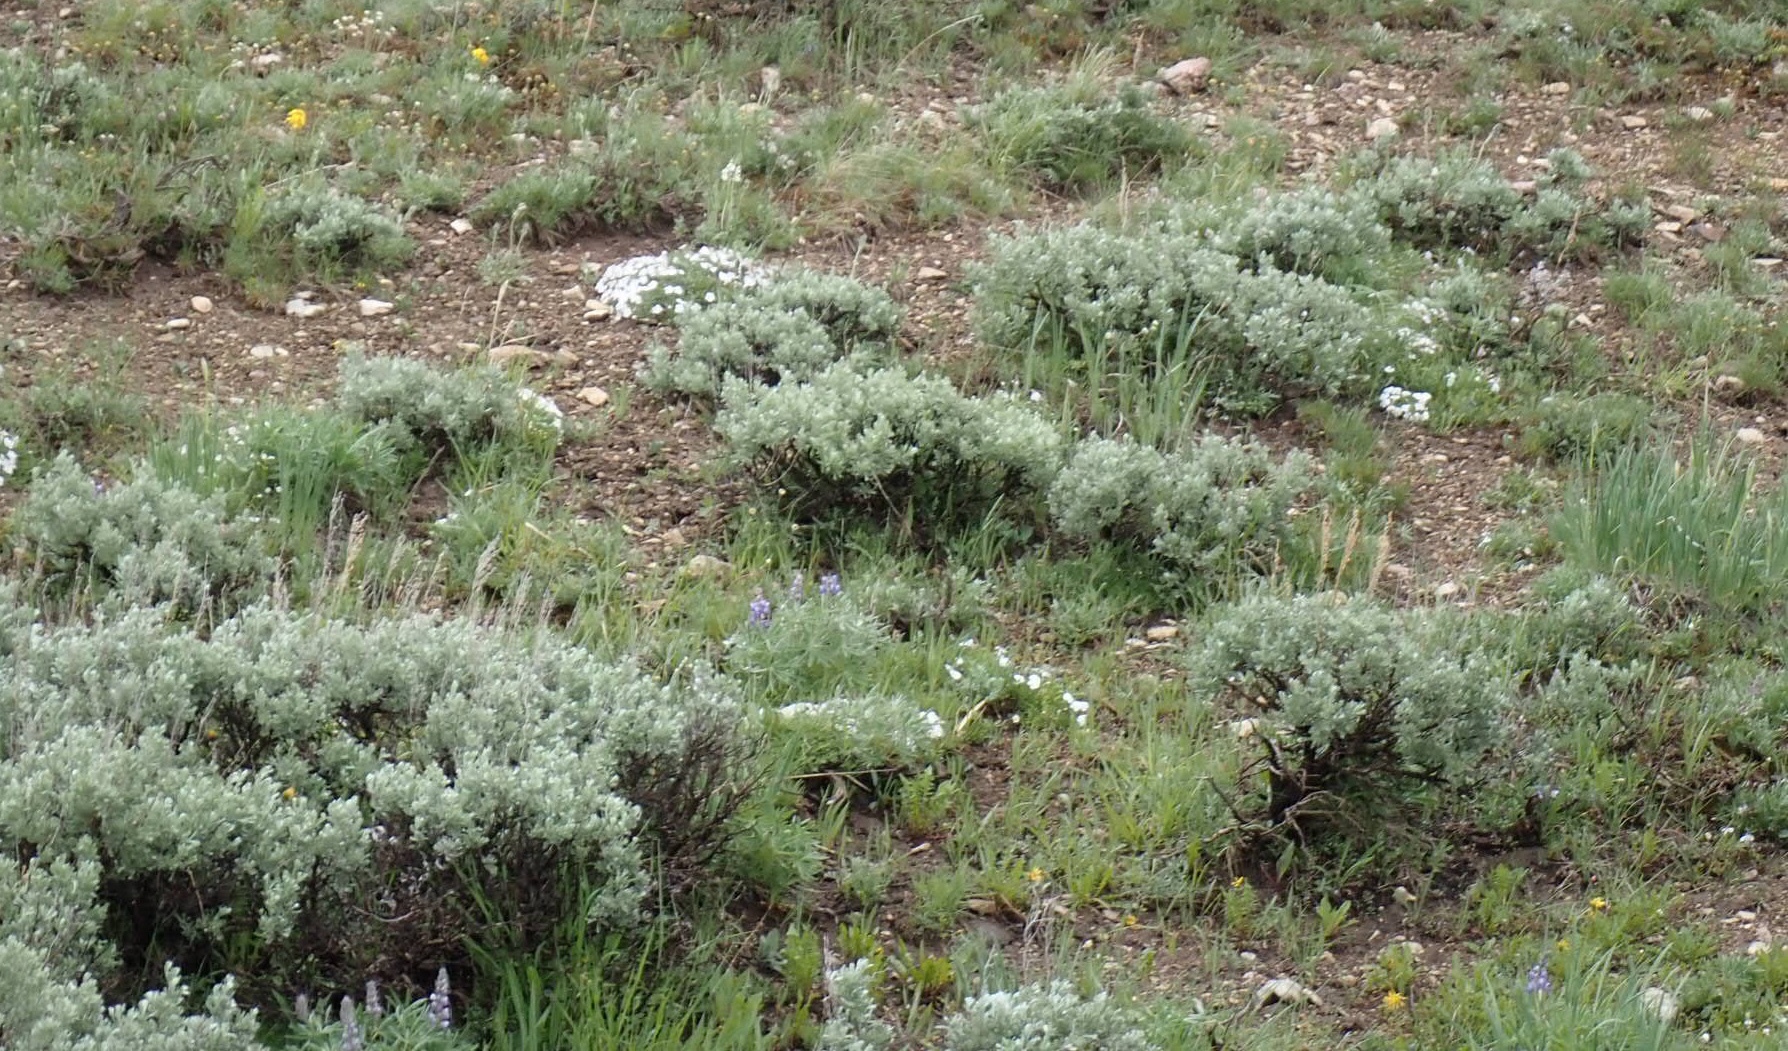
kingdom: Plantae
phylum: Tracheophyta
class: Magnoliopsida
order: Asterales
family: Asteraceae
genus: Artemisia
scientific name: Artemisia tridentata
